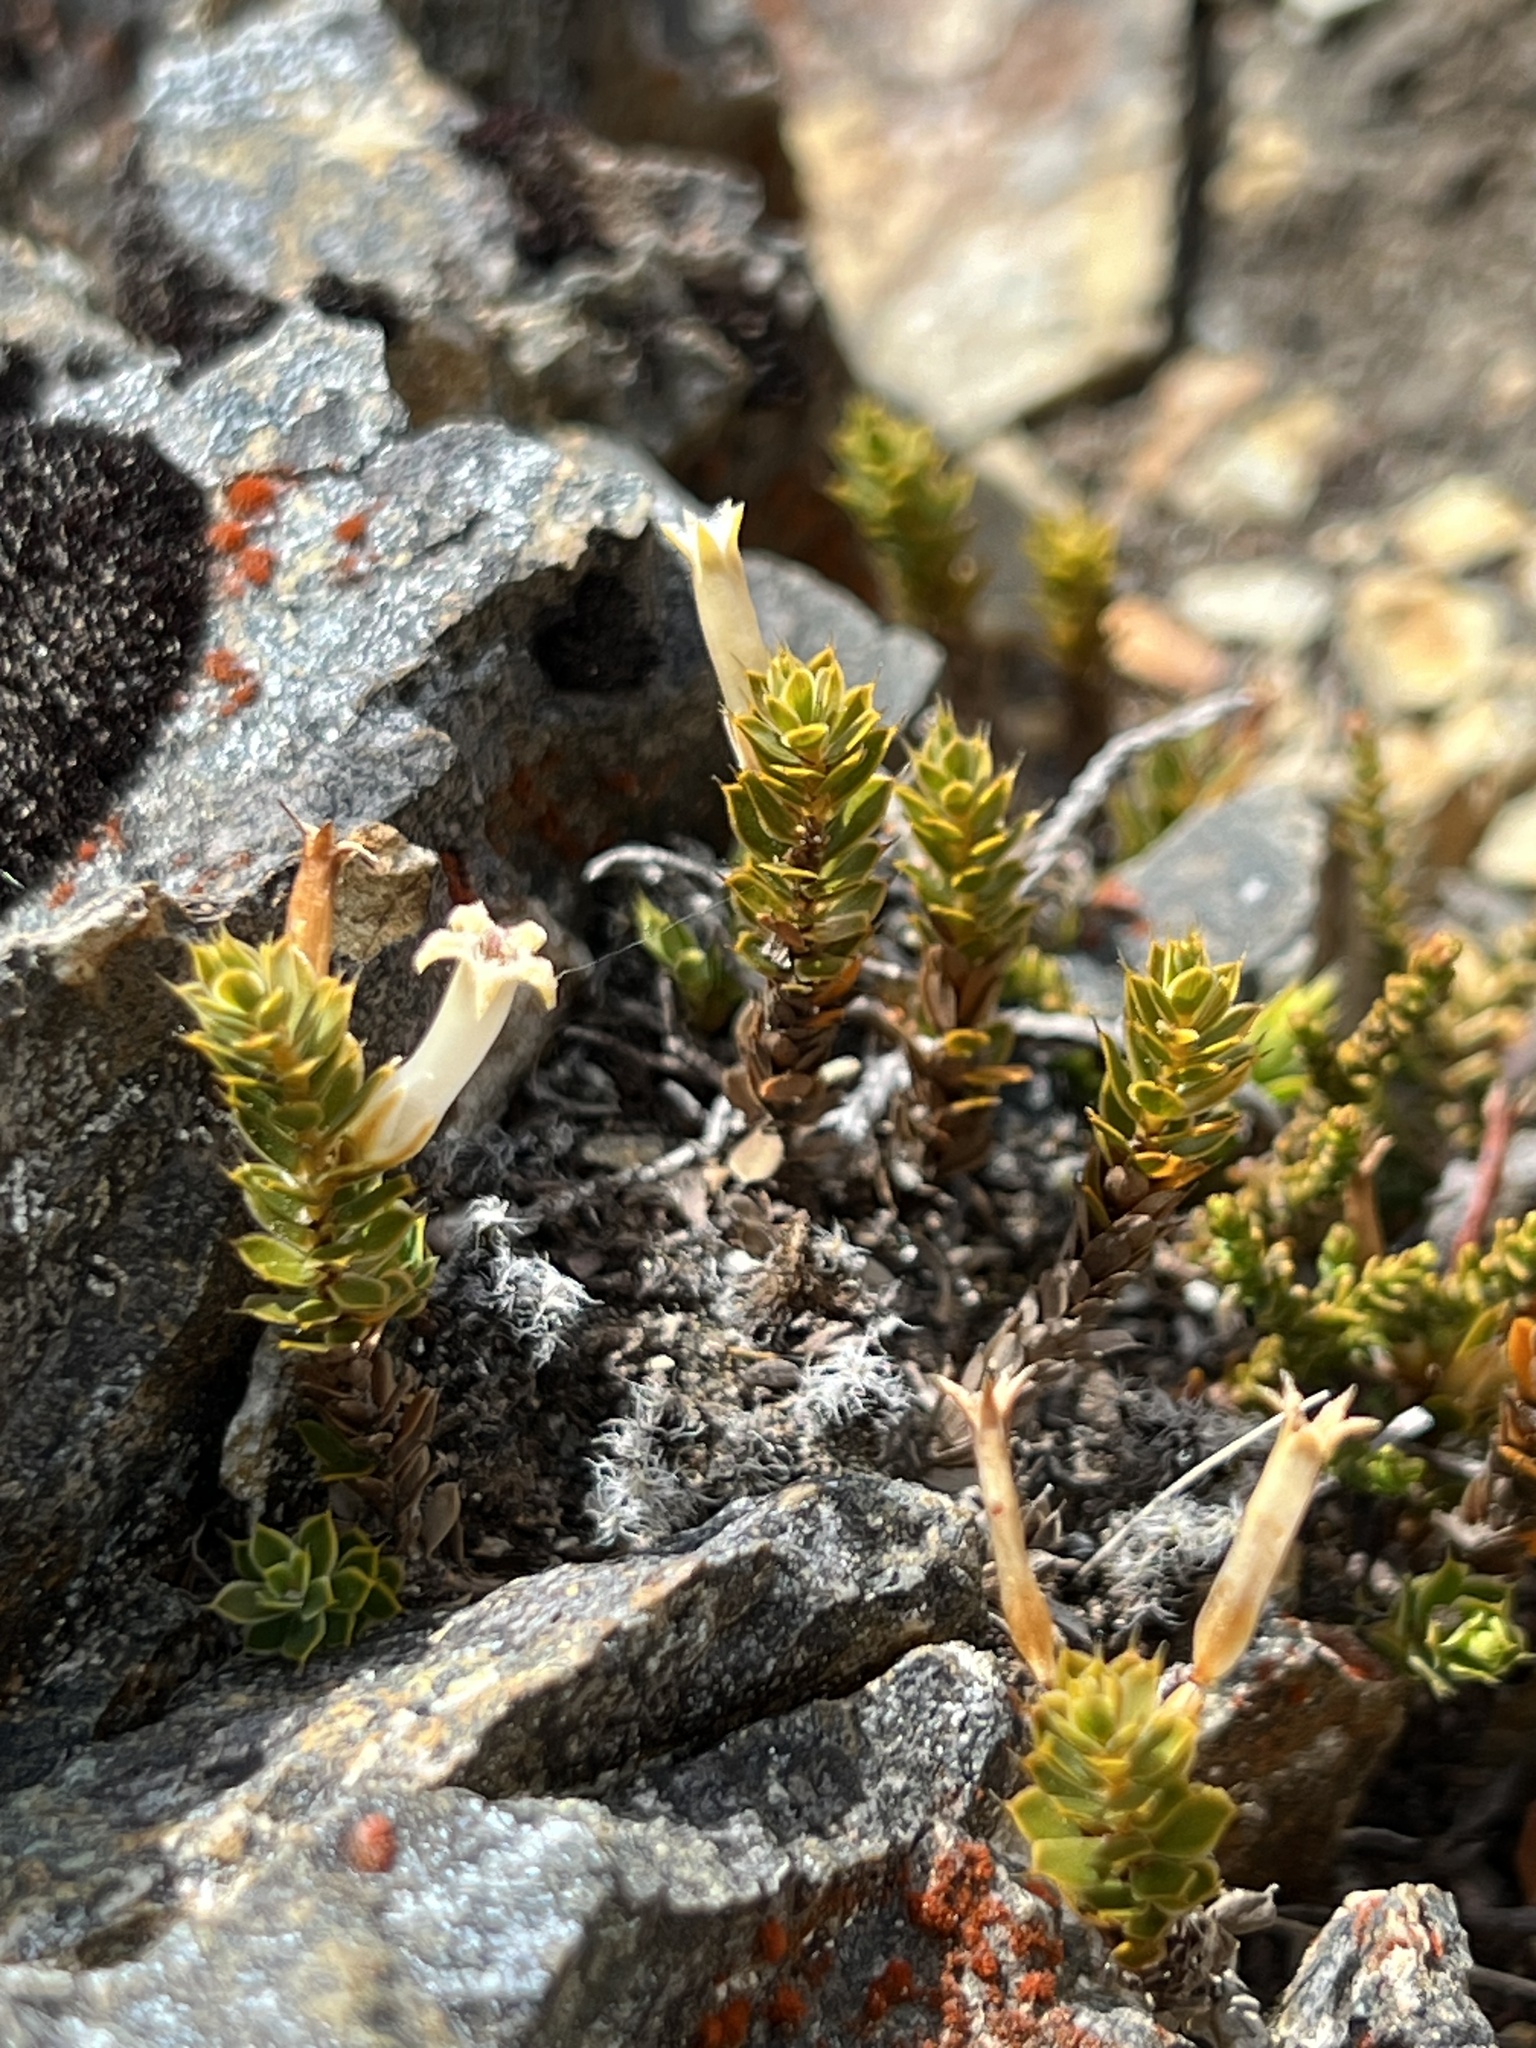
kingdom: Plantae
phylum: Tracheophyta
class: Magnoliopsida
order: Ericales
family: Ericaceae
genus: Styphelia
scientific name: Styphelia nesophila
